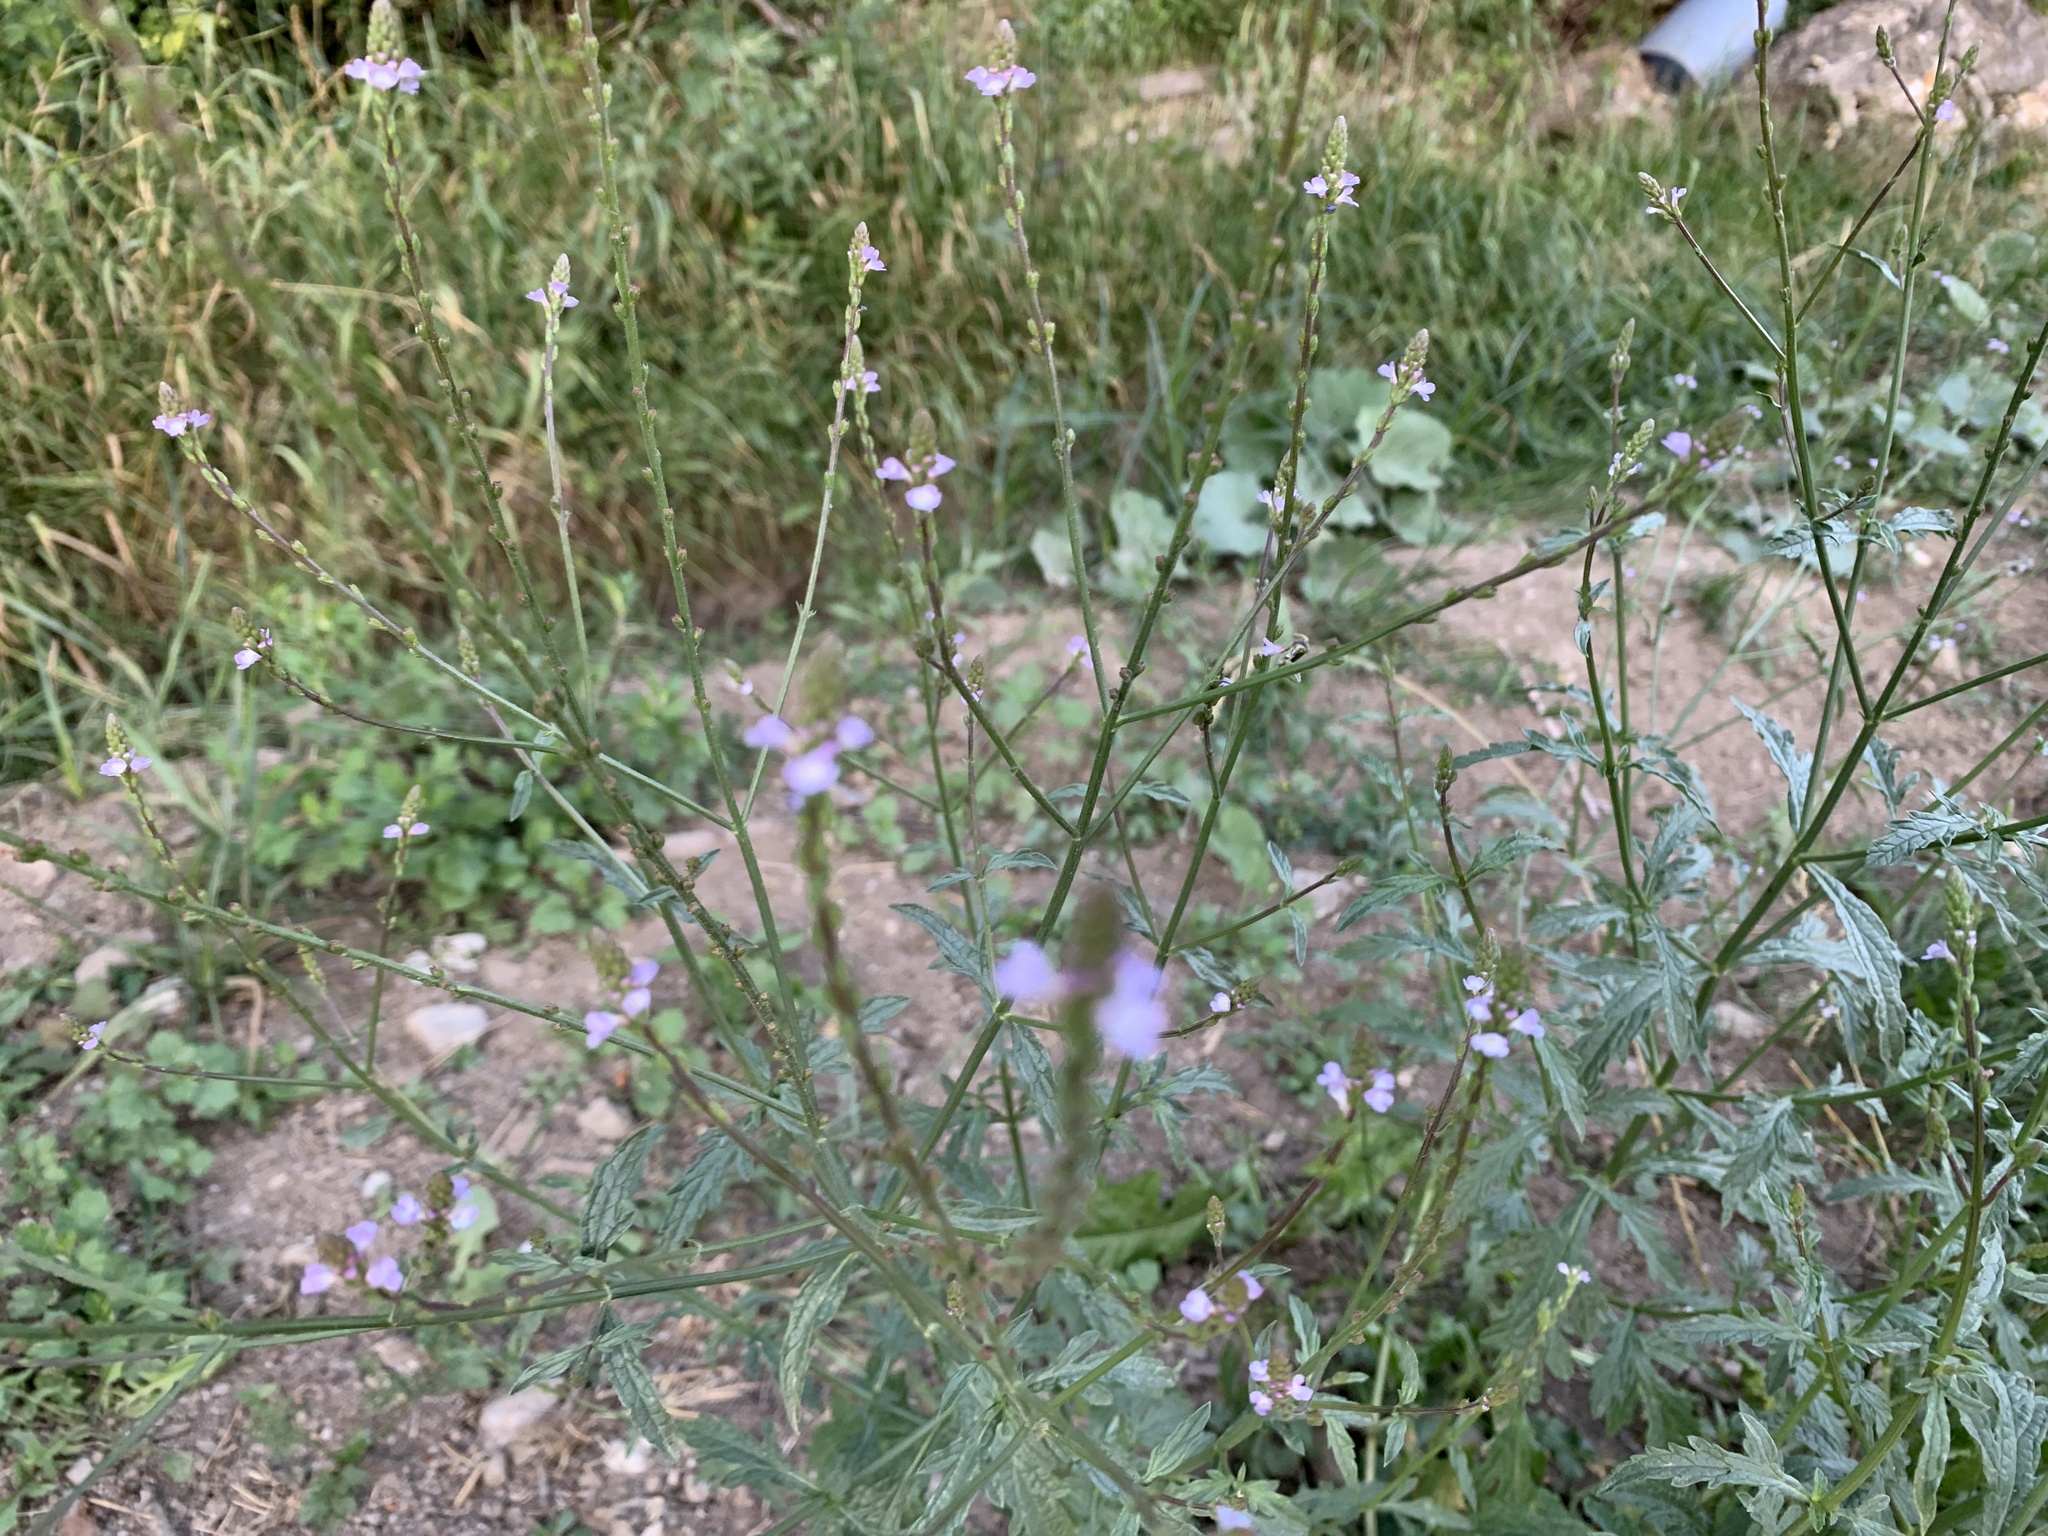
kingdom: Plantae
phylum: Tracheophyta
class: Magnoliopsida
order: Lamiales
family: Verbenaceae
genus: Verbena
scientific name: Verbena officinalis
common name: Vervain
